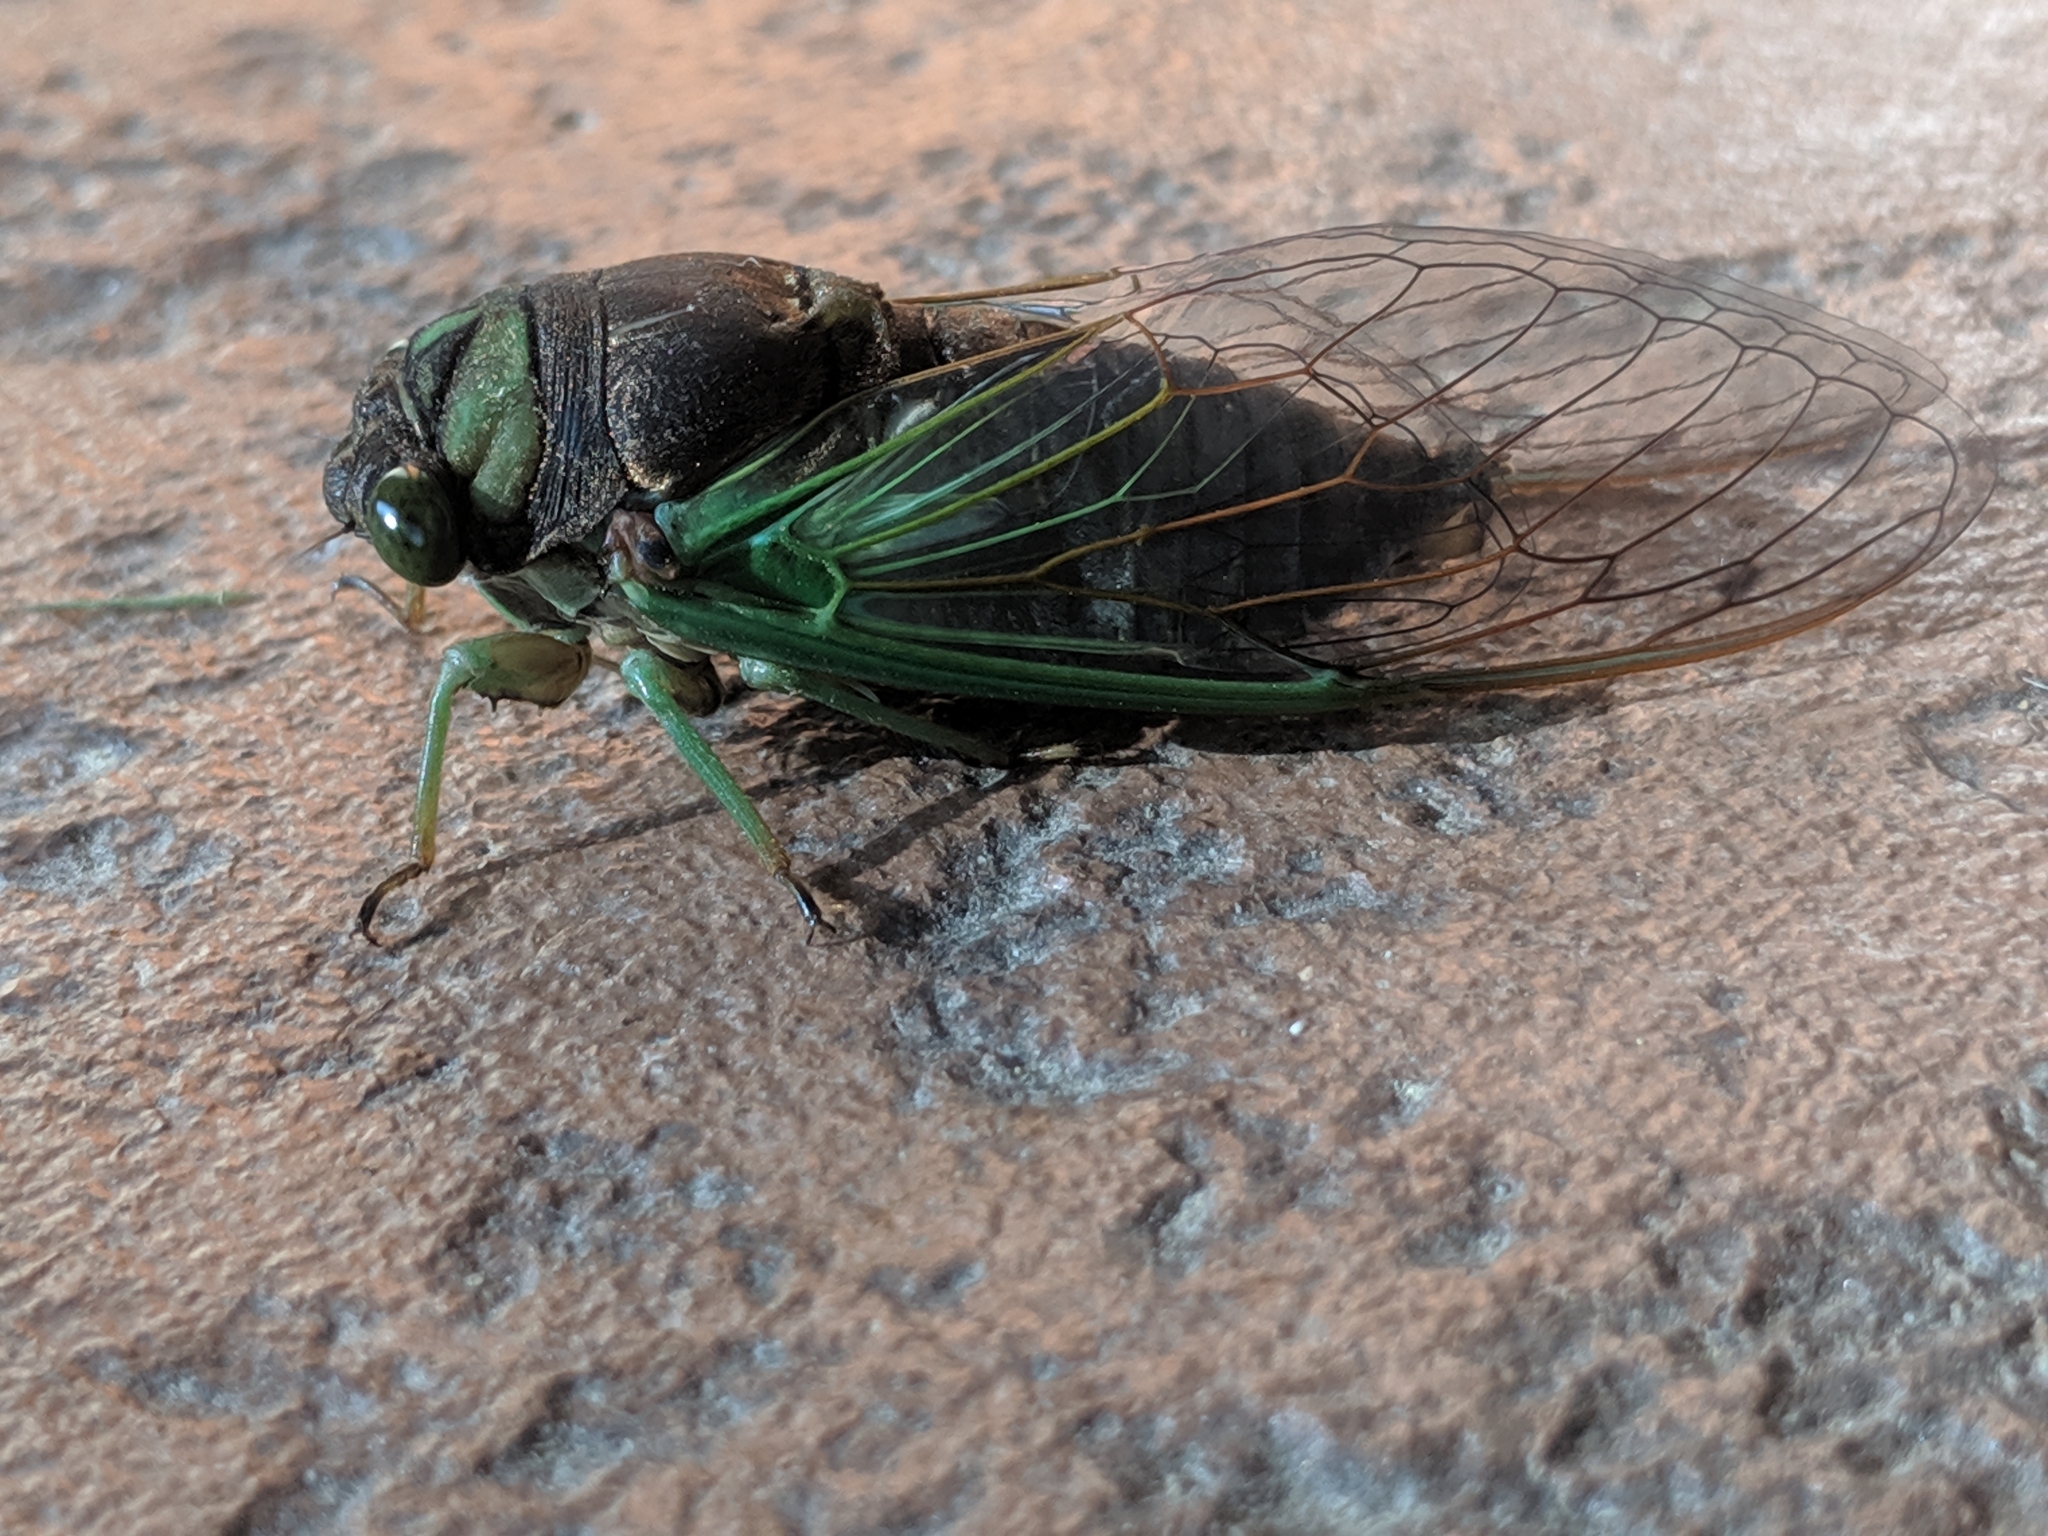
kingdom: Animalia
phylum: Arthropoda
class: Insecta
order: Hemiptera
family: Cicadidae
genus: Neotibicen
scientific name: Neotibicen tibicen
